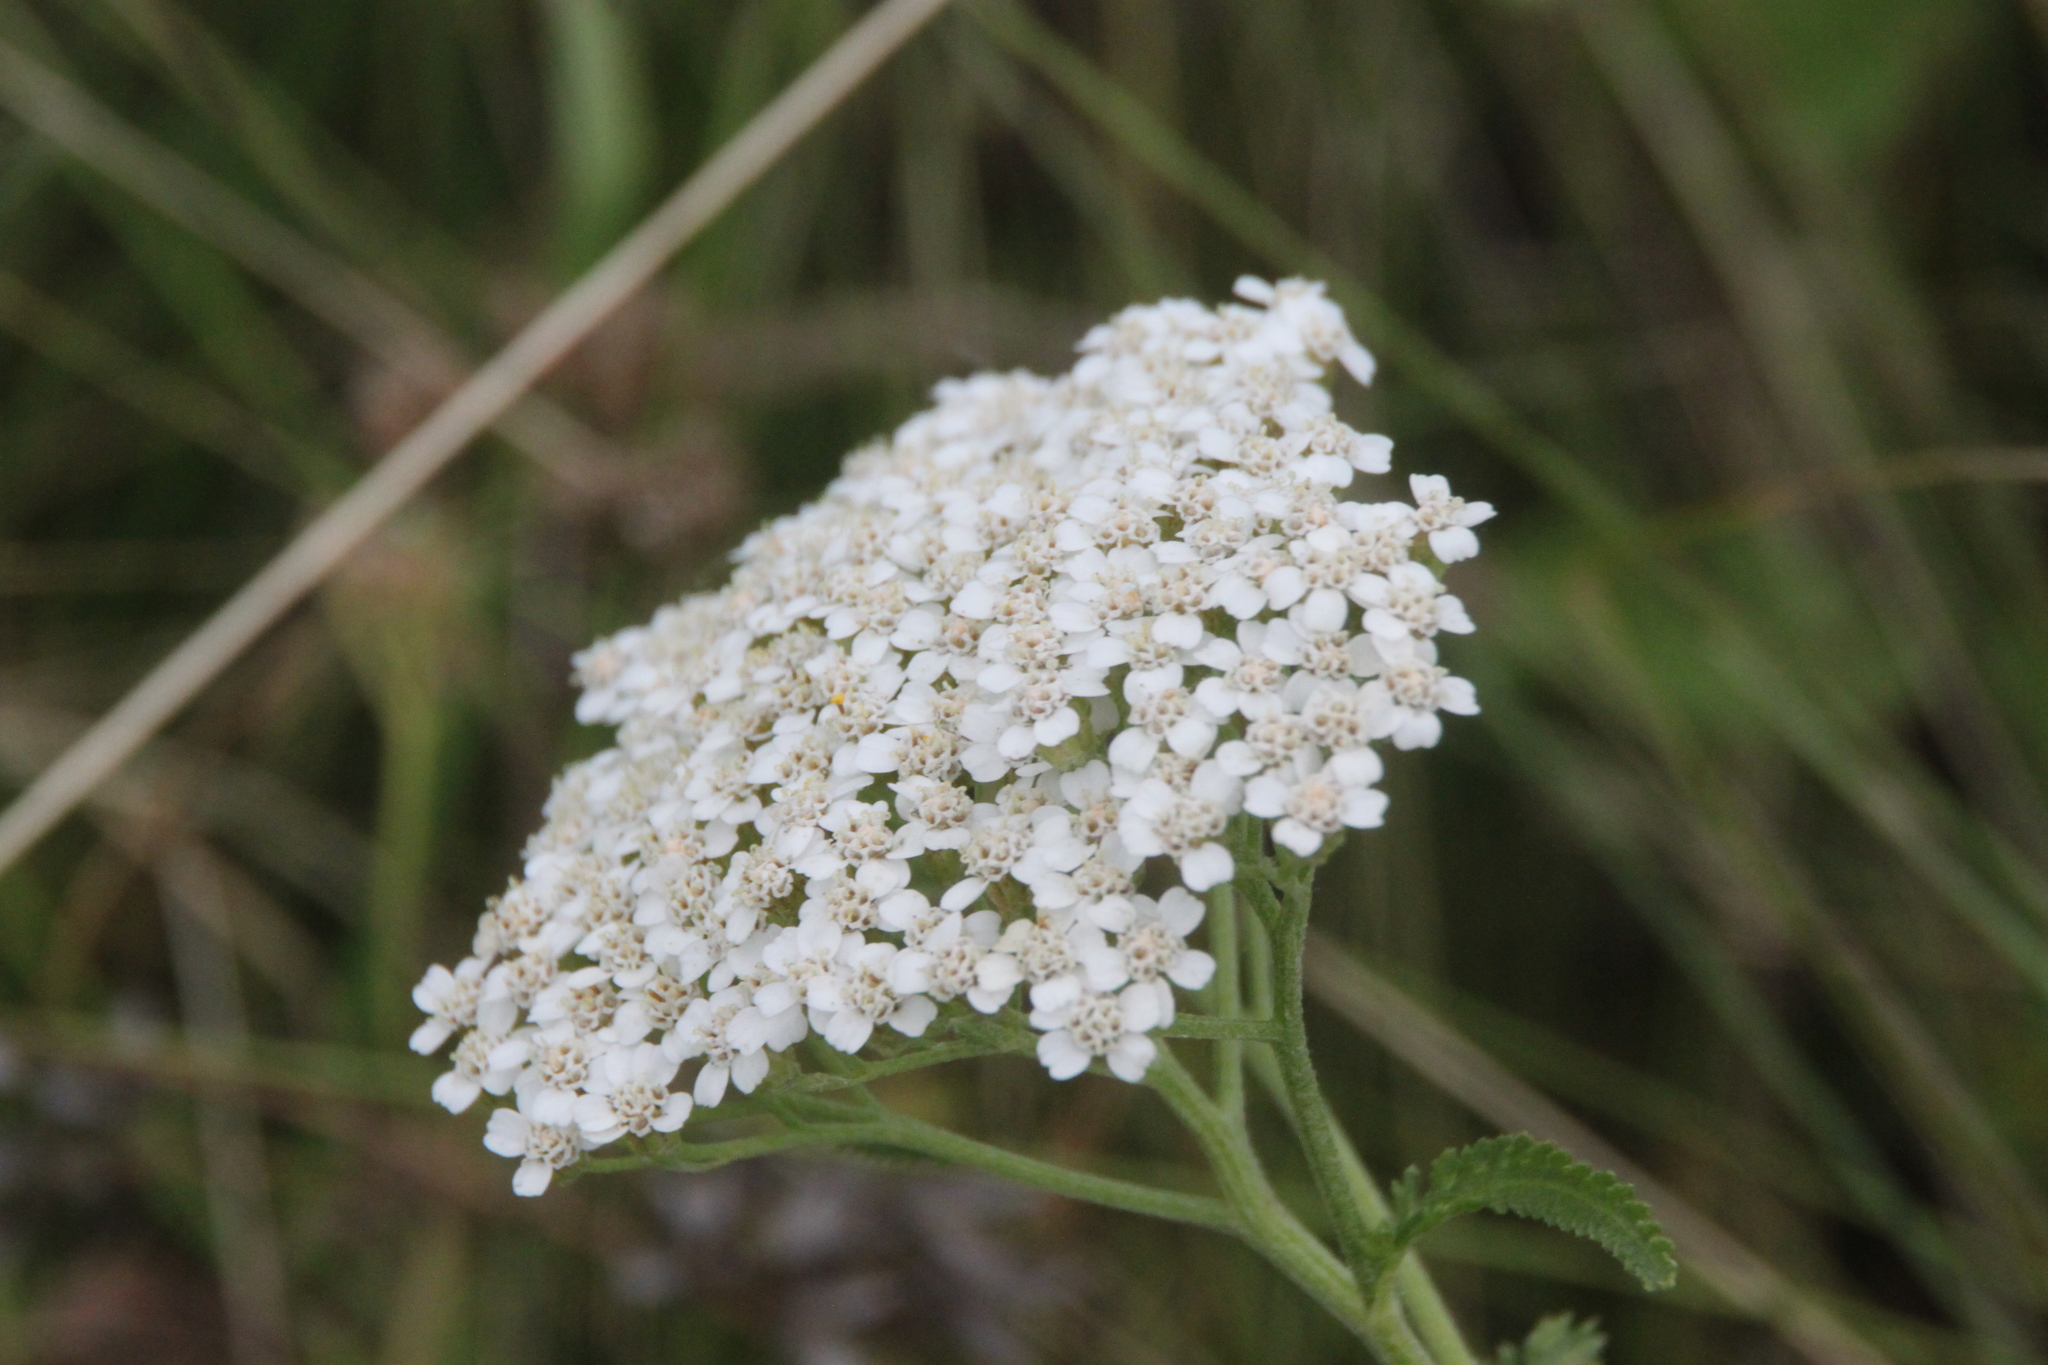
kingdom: Plantae
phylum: Tracheophyta
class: Magnoliopsida
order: Asterales
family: Asteraceae
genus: Achillea
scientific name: Achillea millefolium
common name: Yarrow
